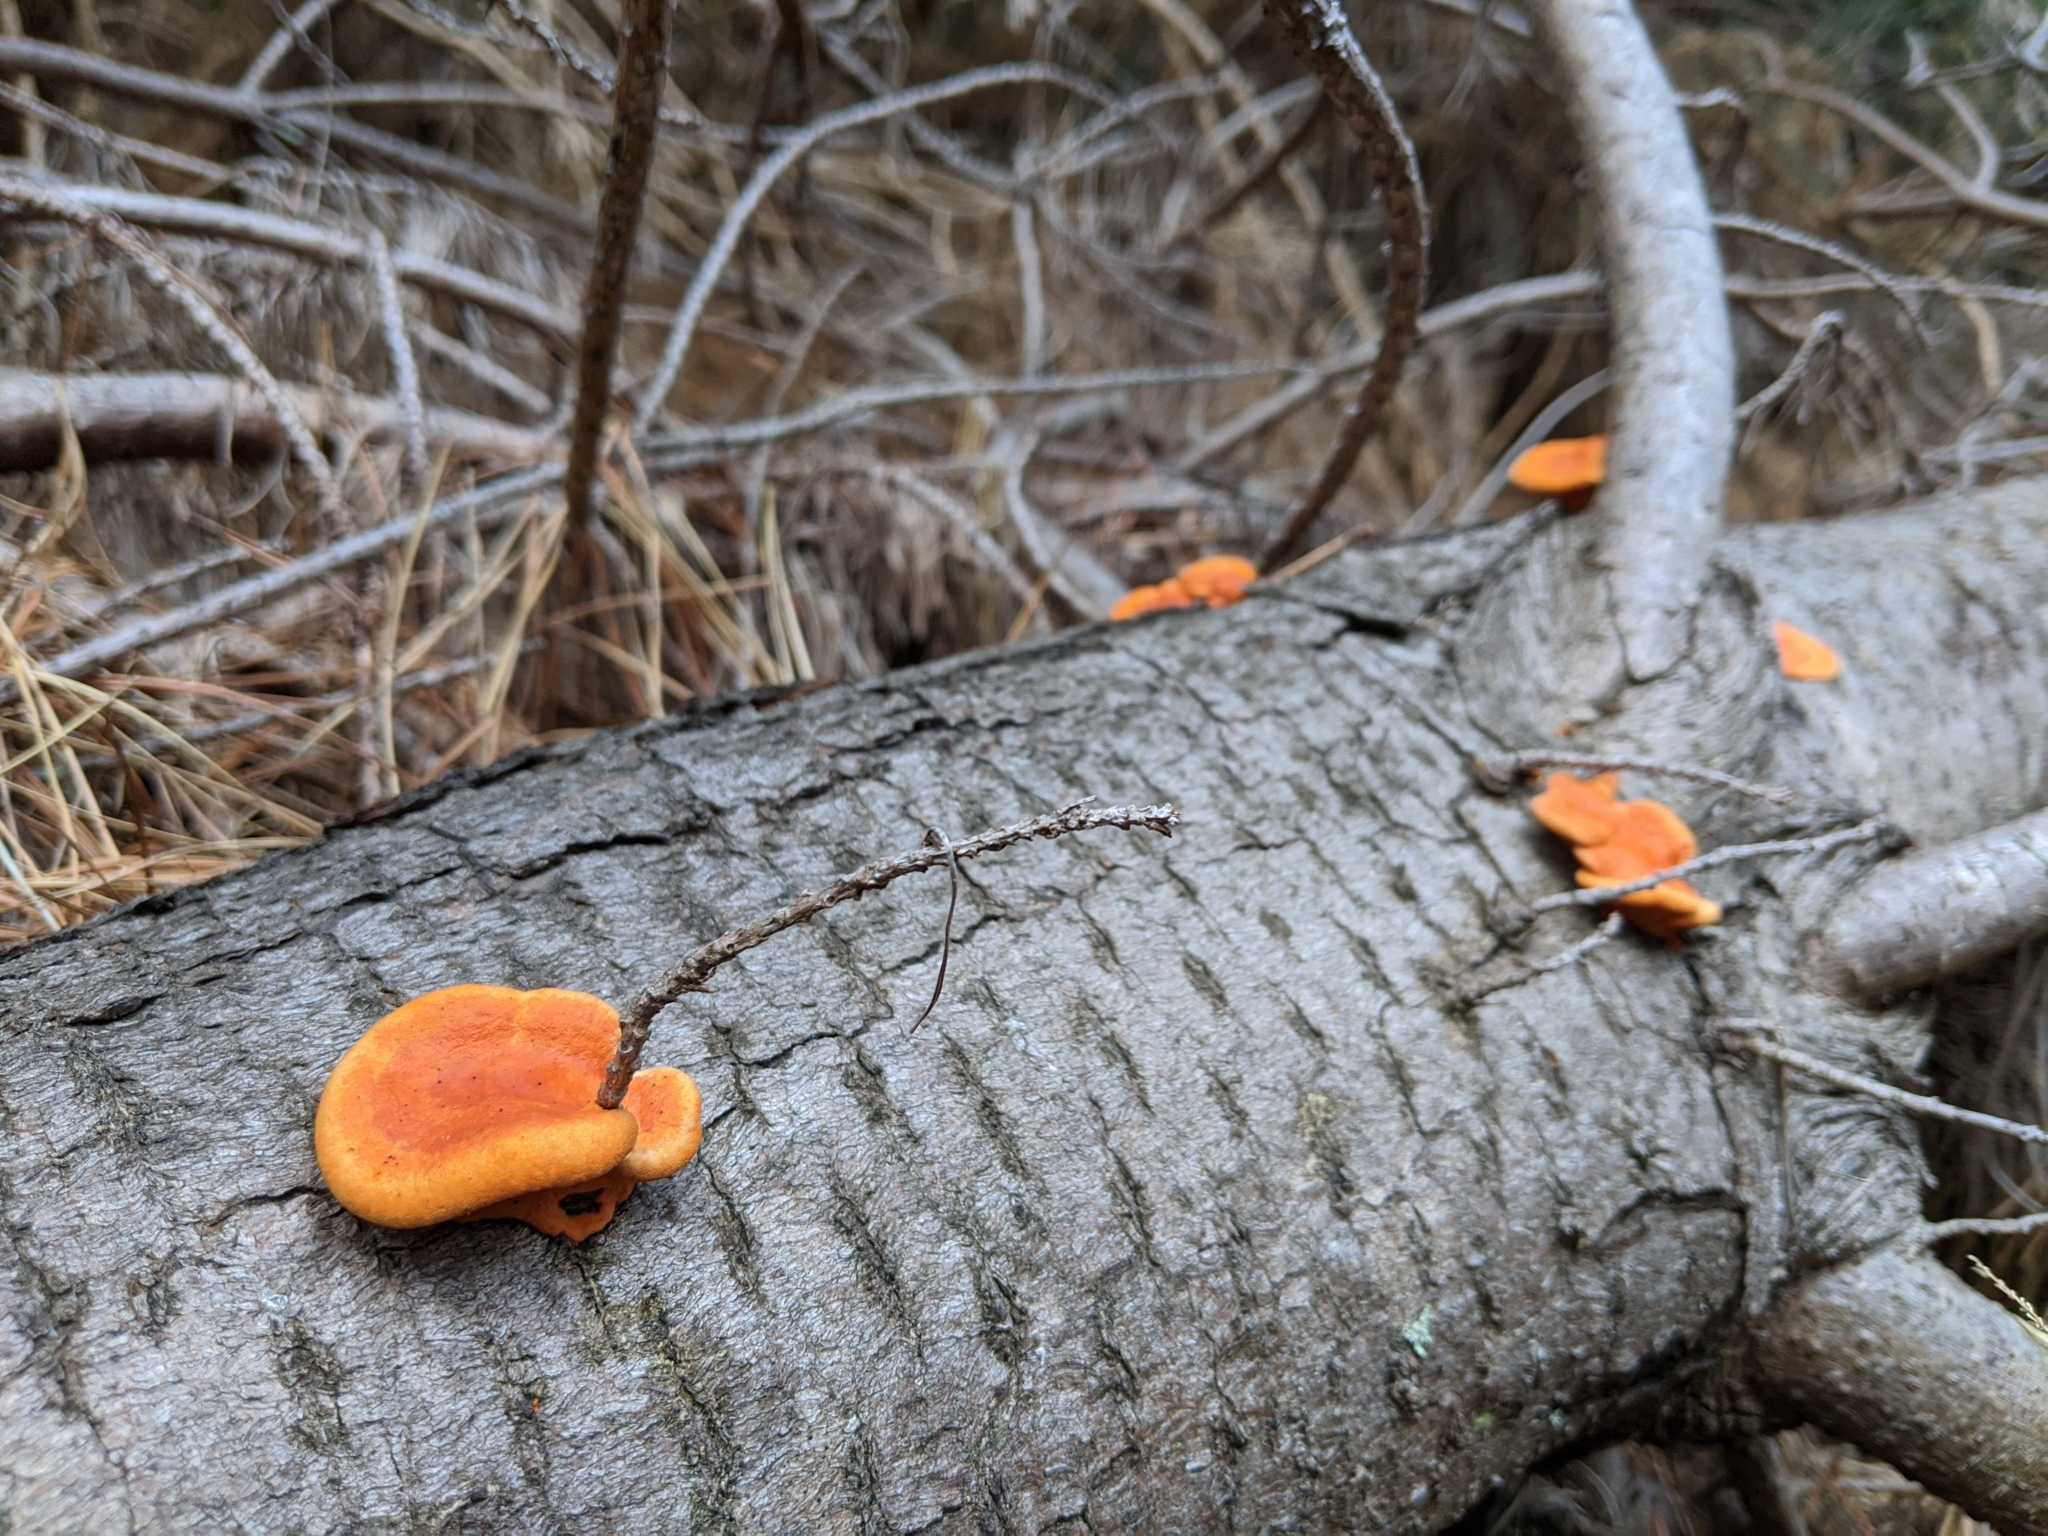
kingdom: Fungi
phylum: Basidiomycota
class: Agaricomycetes
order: Polyporales
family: Polyporaceae
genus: Trametes
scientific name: Trametes coccinea
